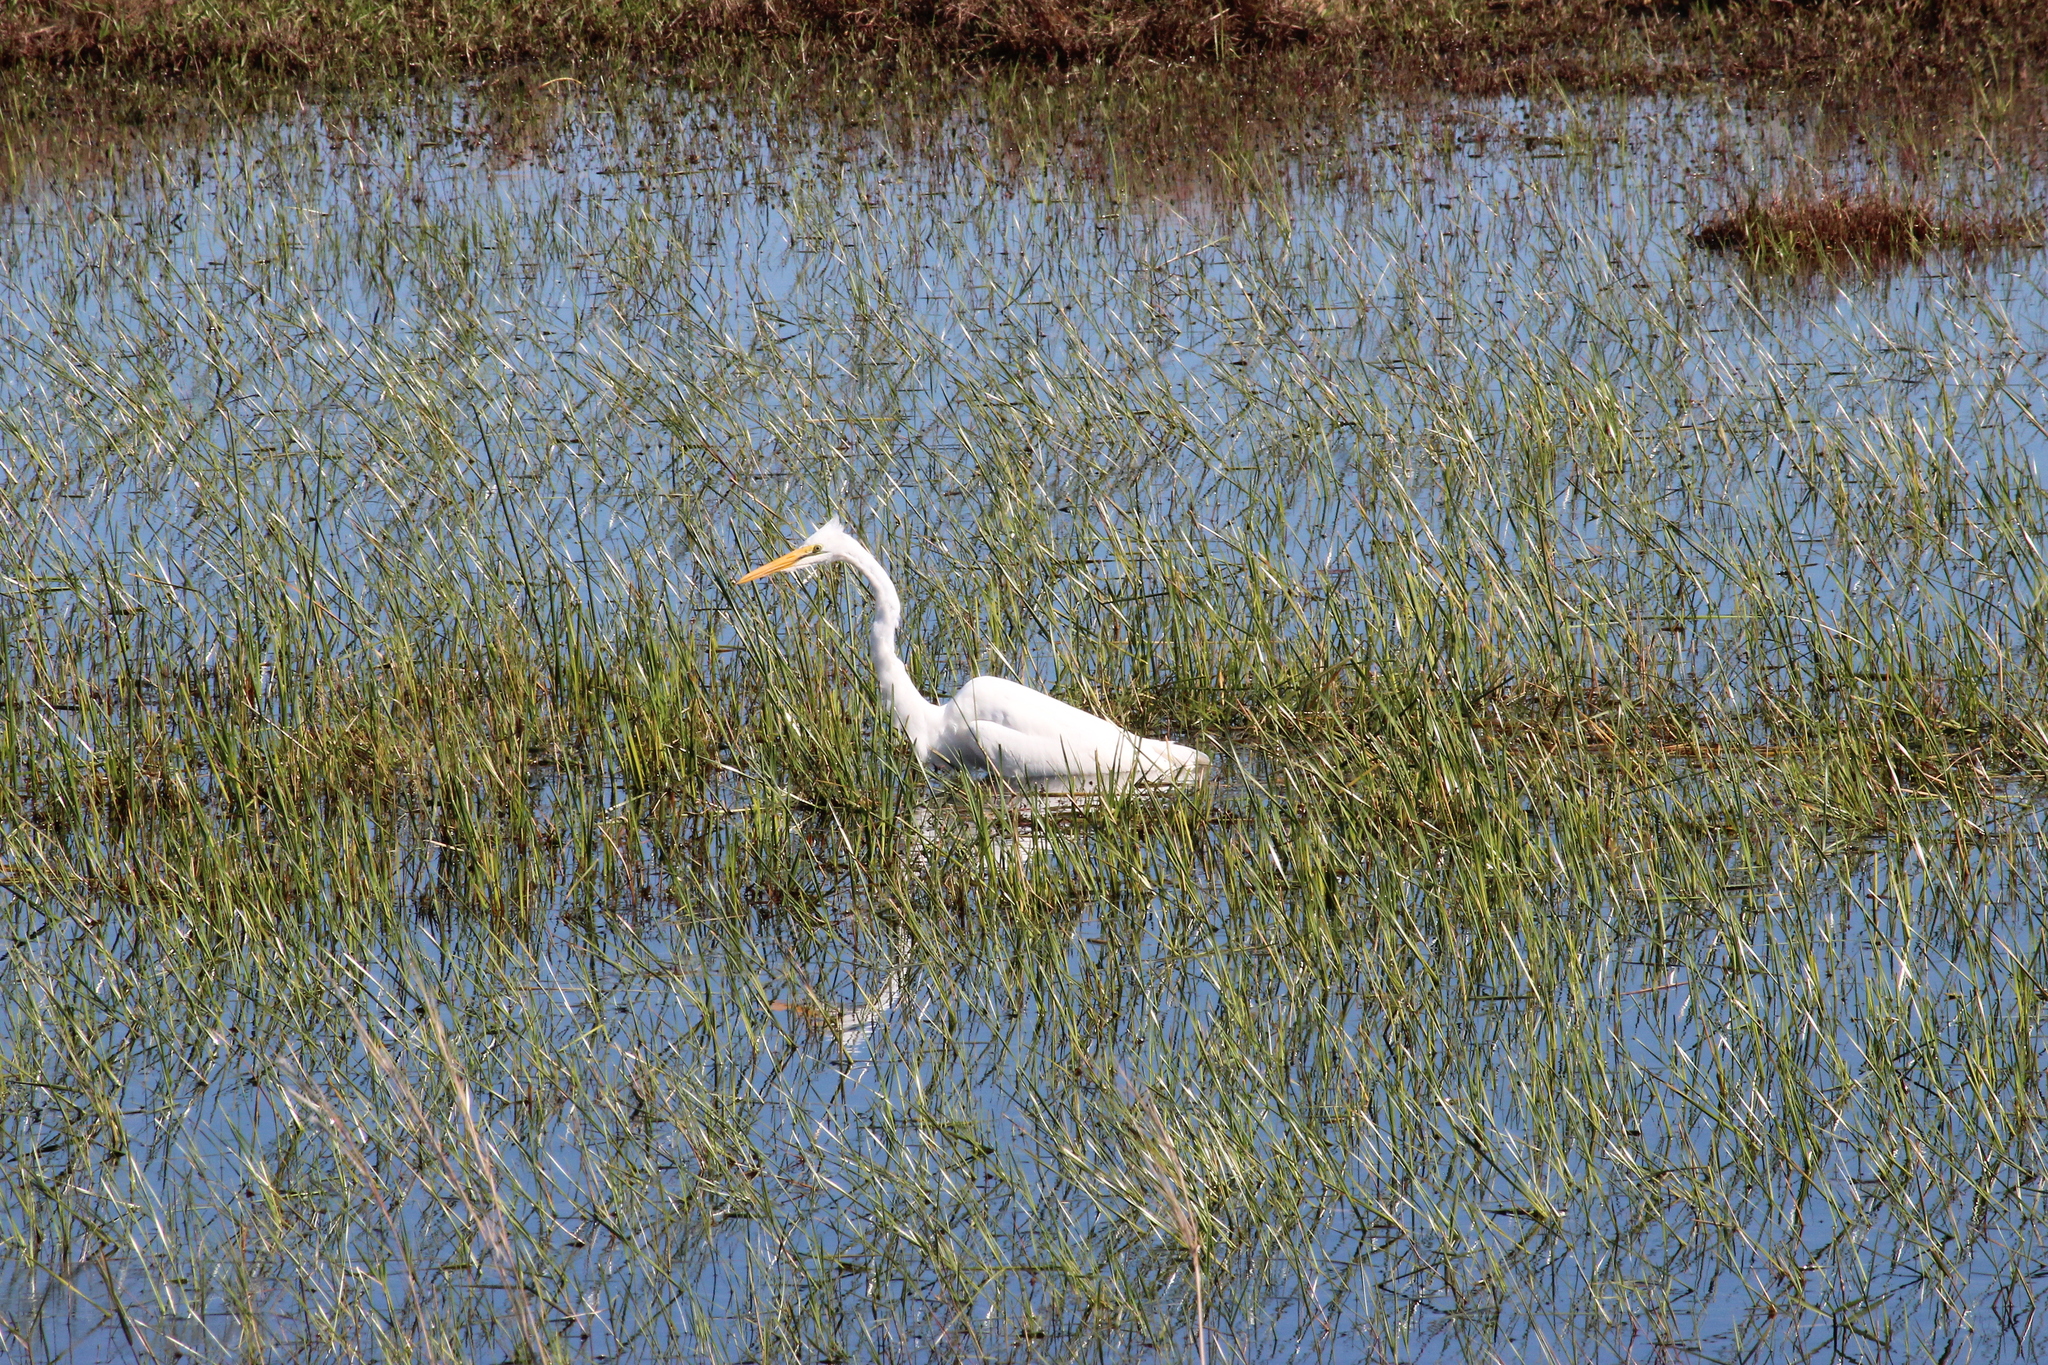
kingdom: Animalia
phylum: Chordata
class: Aves
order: Pelecaniformes
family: Ardeidae
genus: Ardea
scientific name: Ardea alba
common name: Great egret
